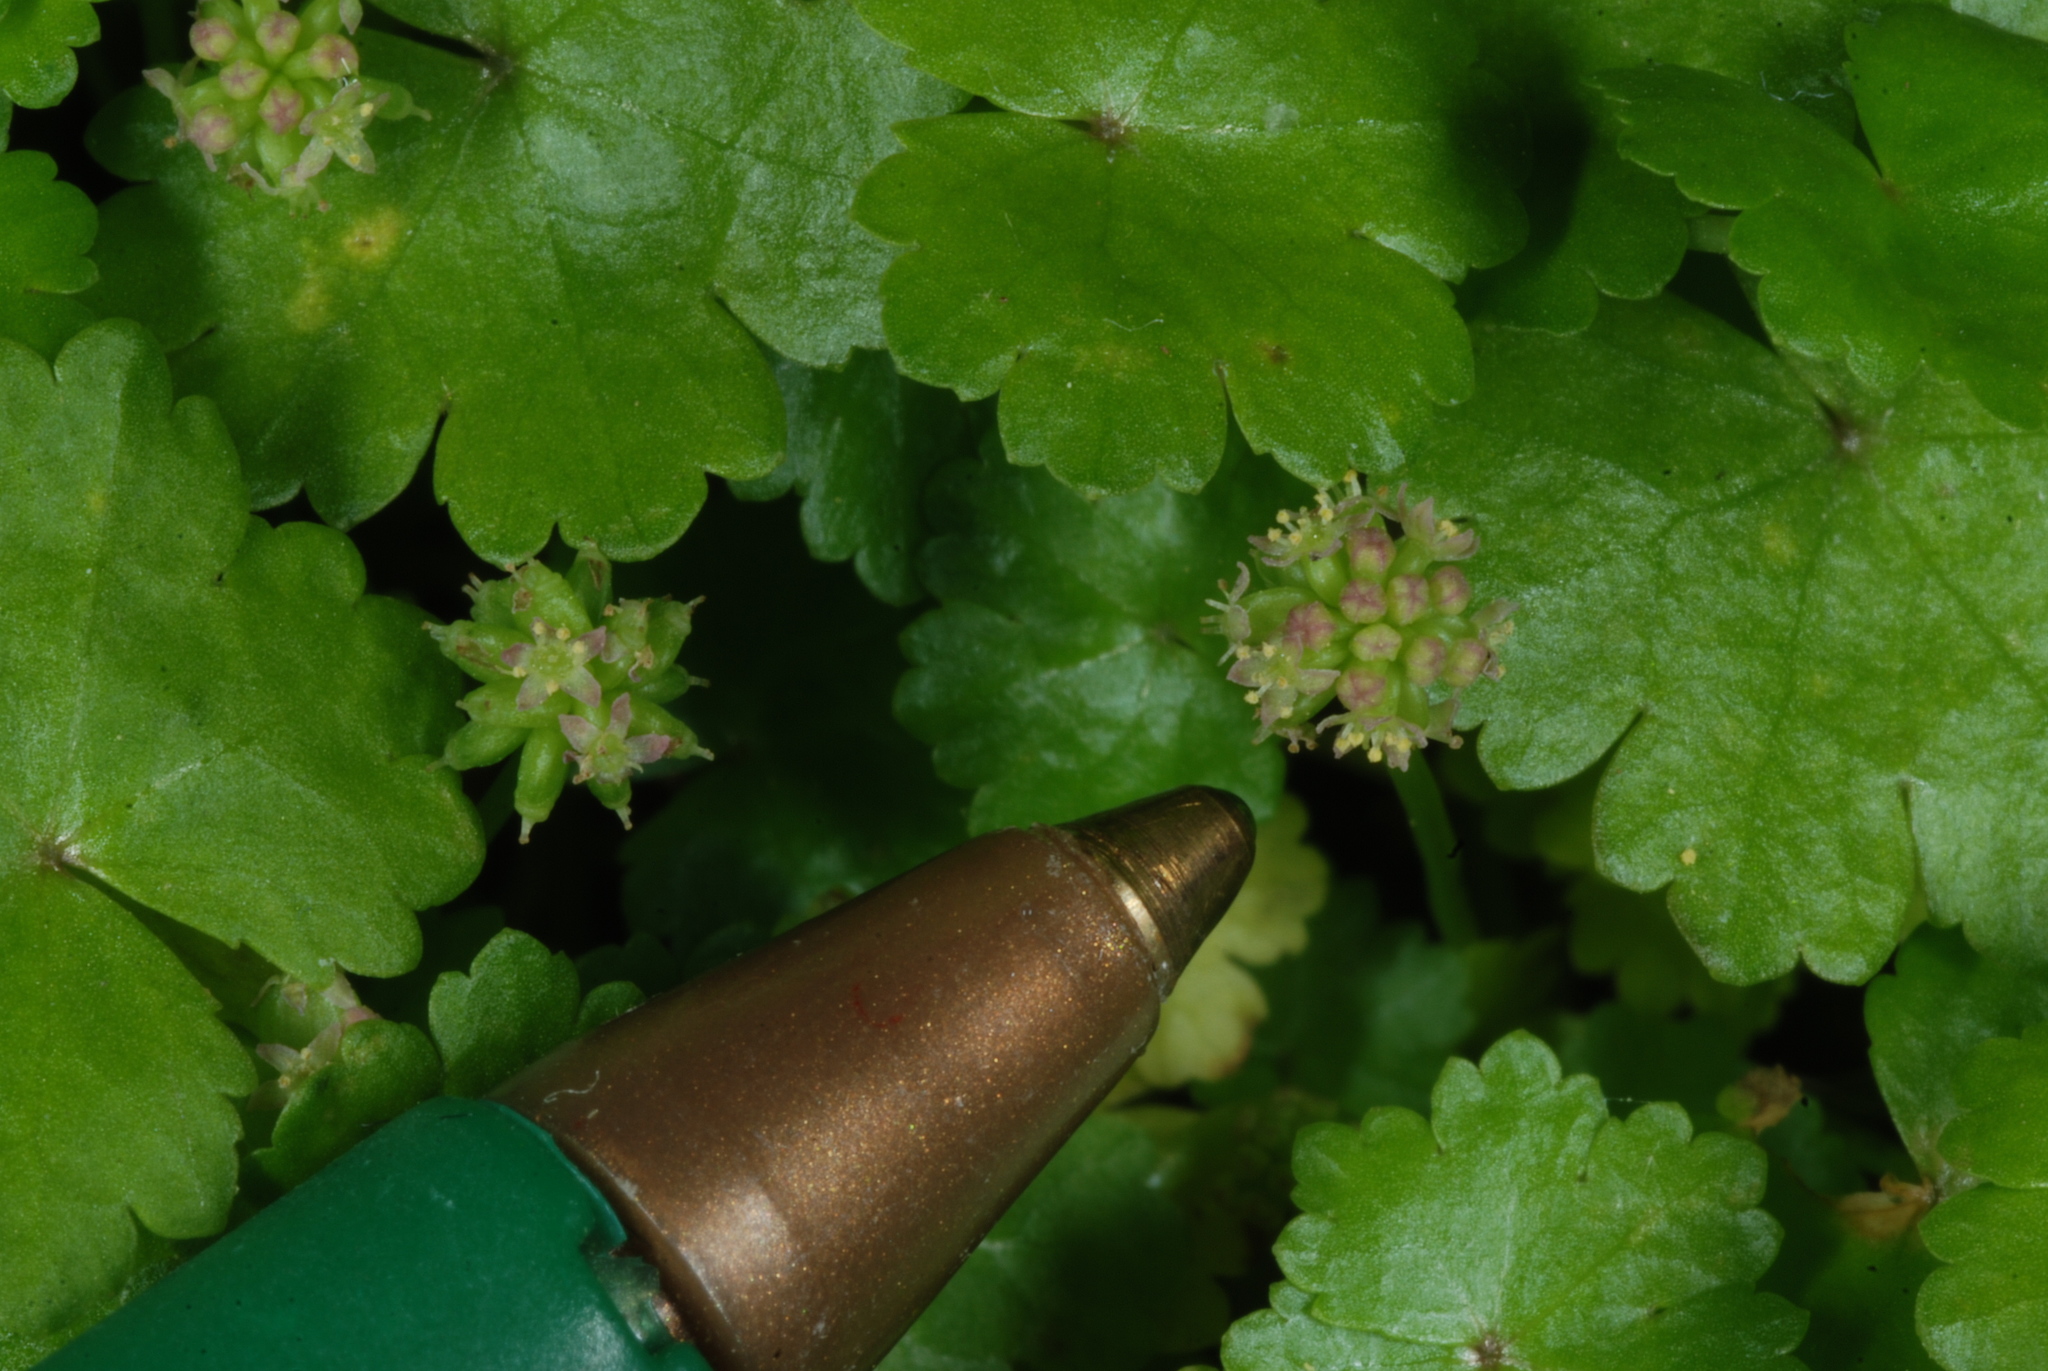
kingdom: Plantae
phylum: Tracheophyta
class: Magnoliopsida
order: Apiales
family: Araliaceae
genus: Hydrocotyle
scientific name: Hydrocotyle sibthorpioides
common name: Lawn marshpennywort
